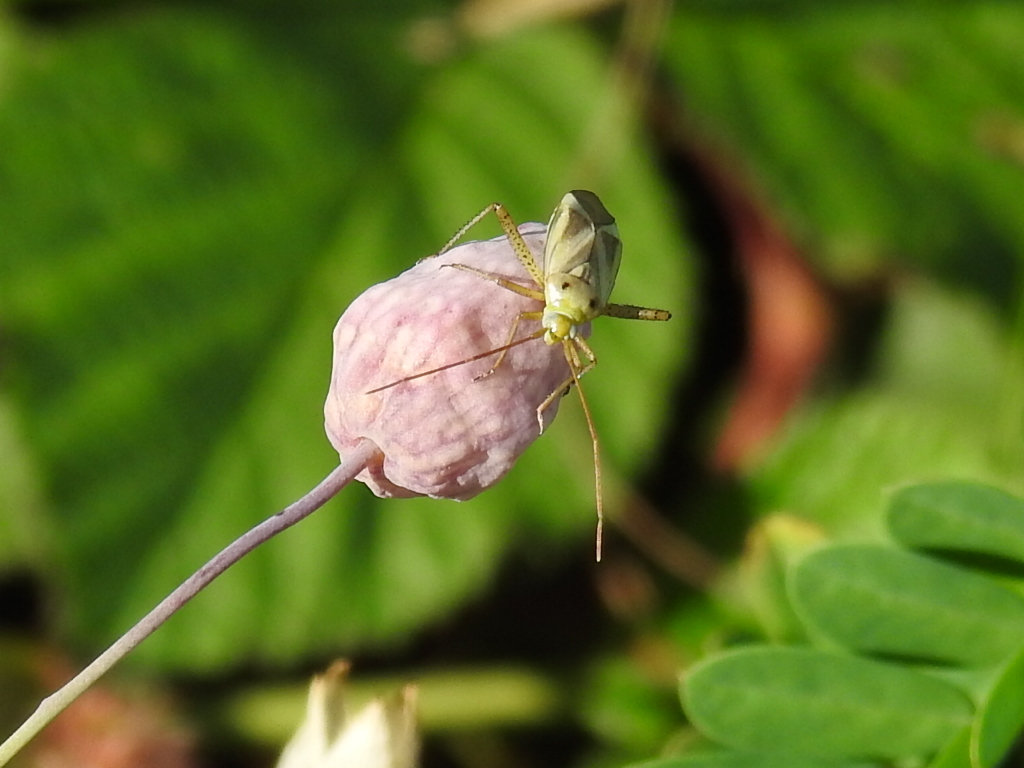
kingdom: Animalia
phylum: Arthropoda
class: Insecta
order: Hemiptera
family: Miridae
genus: Adelphocoris
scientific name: Adelphocoris lineolatus
